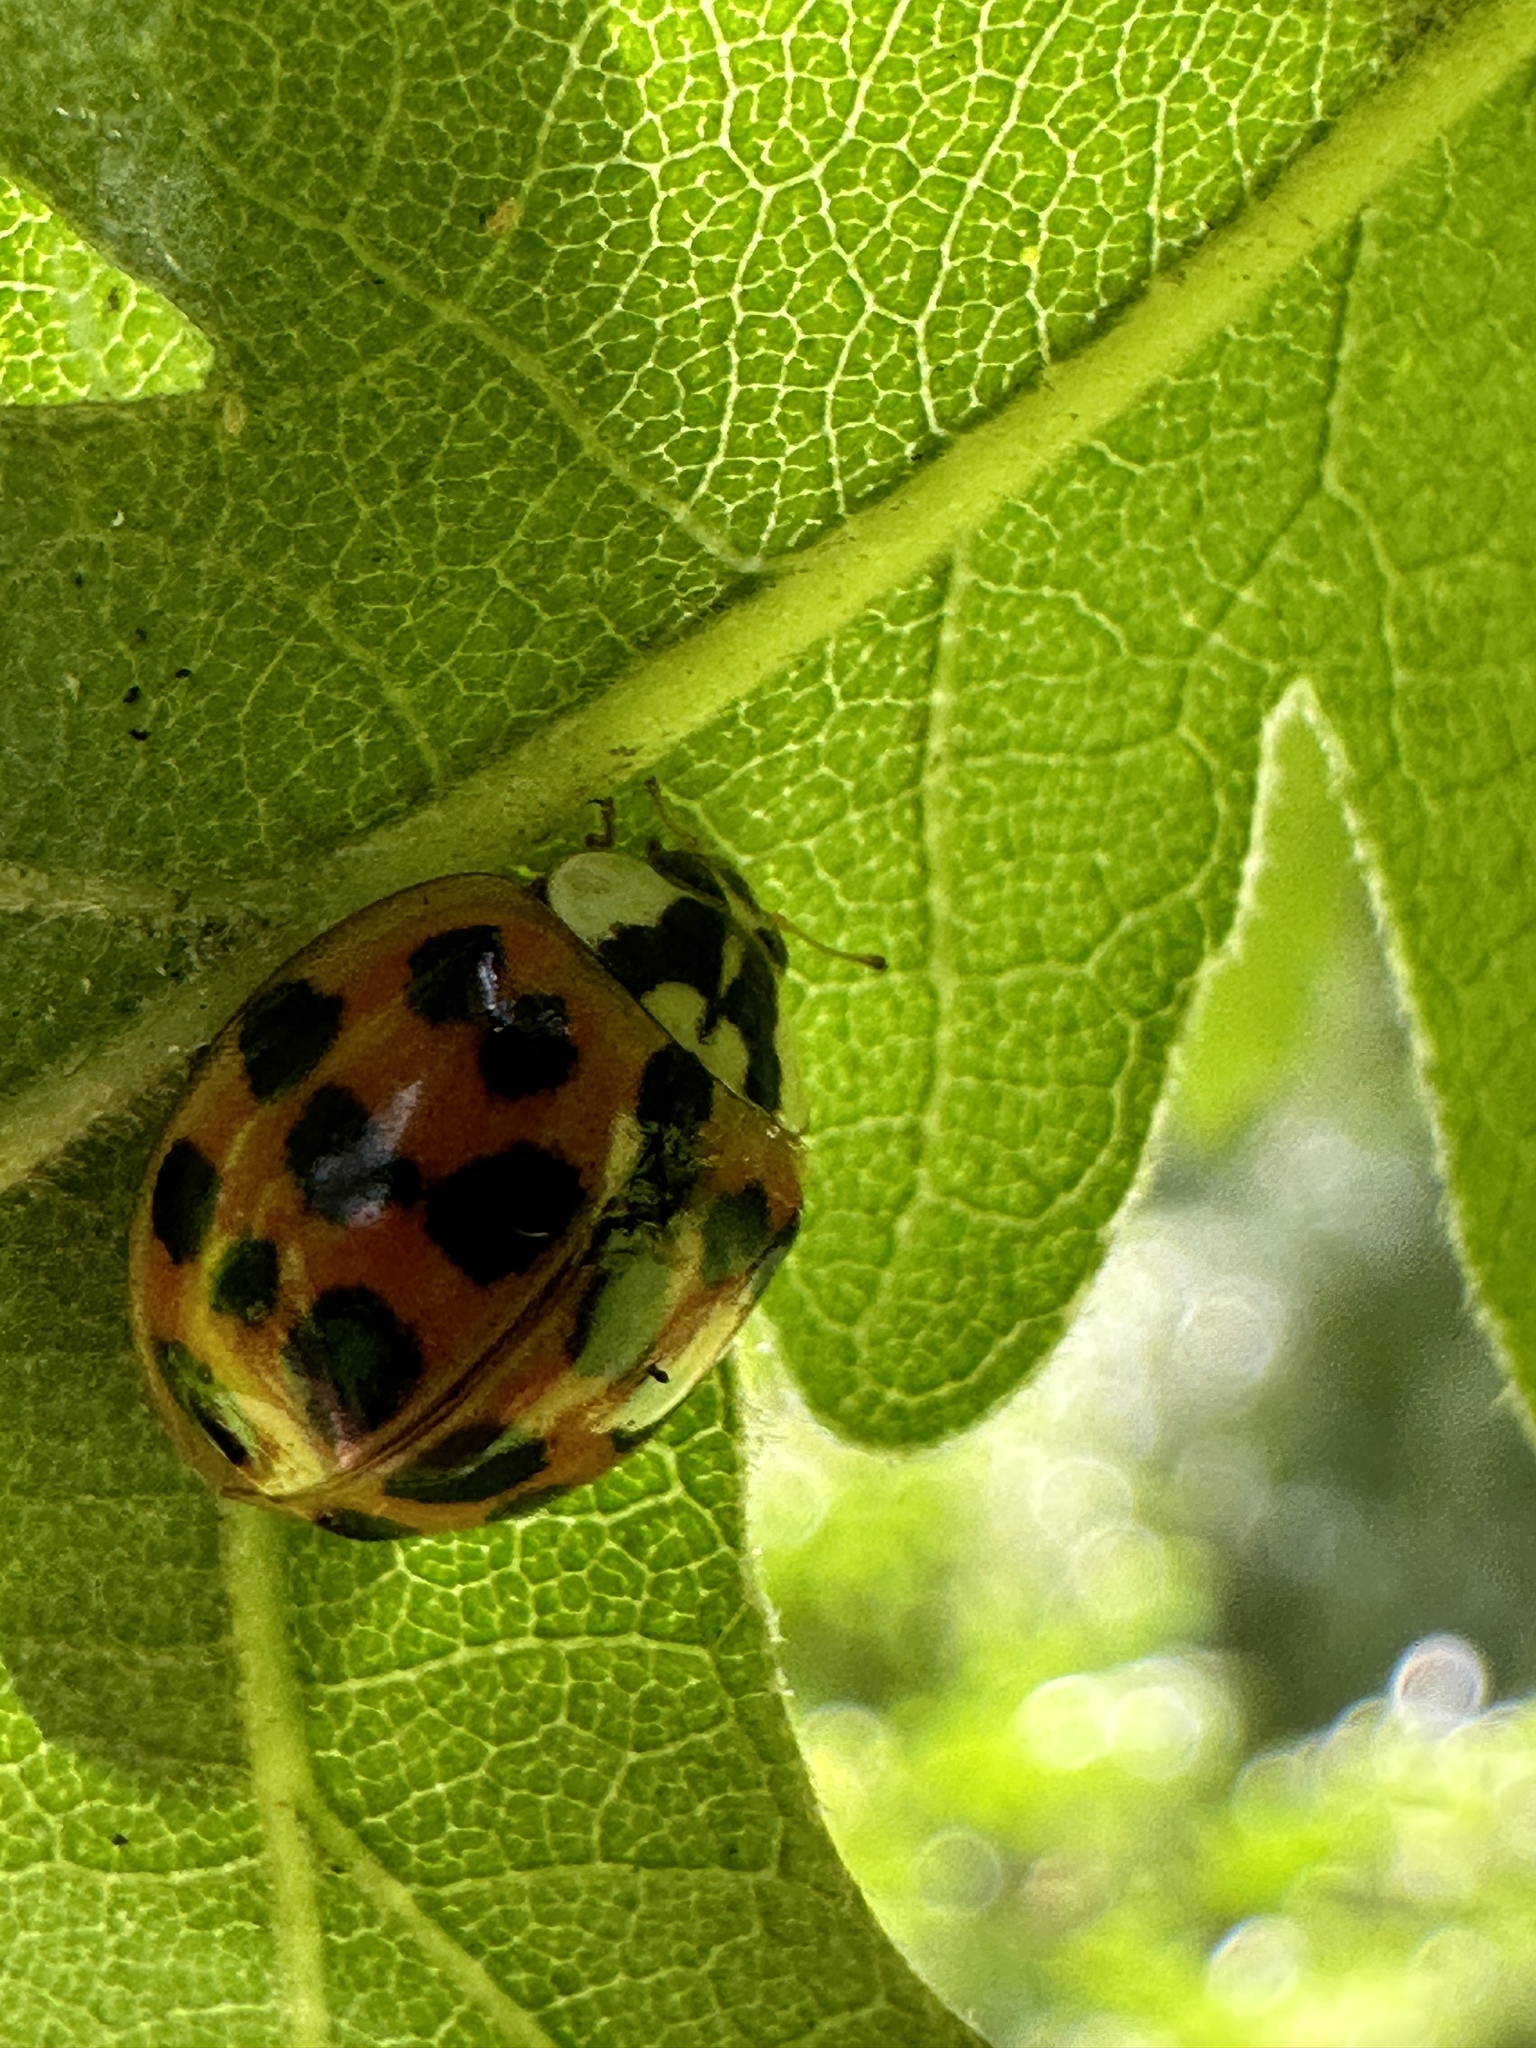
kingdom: Animalia
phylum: Arthropoda
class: Insecta
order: Coleoptera
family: Coccinellidae
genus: Harmonia
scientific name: Harmonia axyridis
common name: Harlequin ladybird
